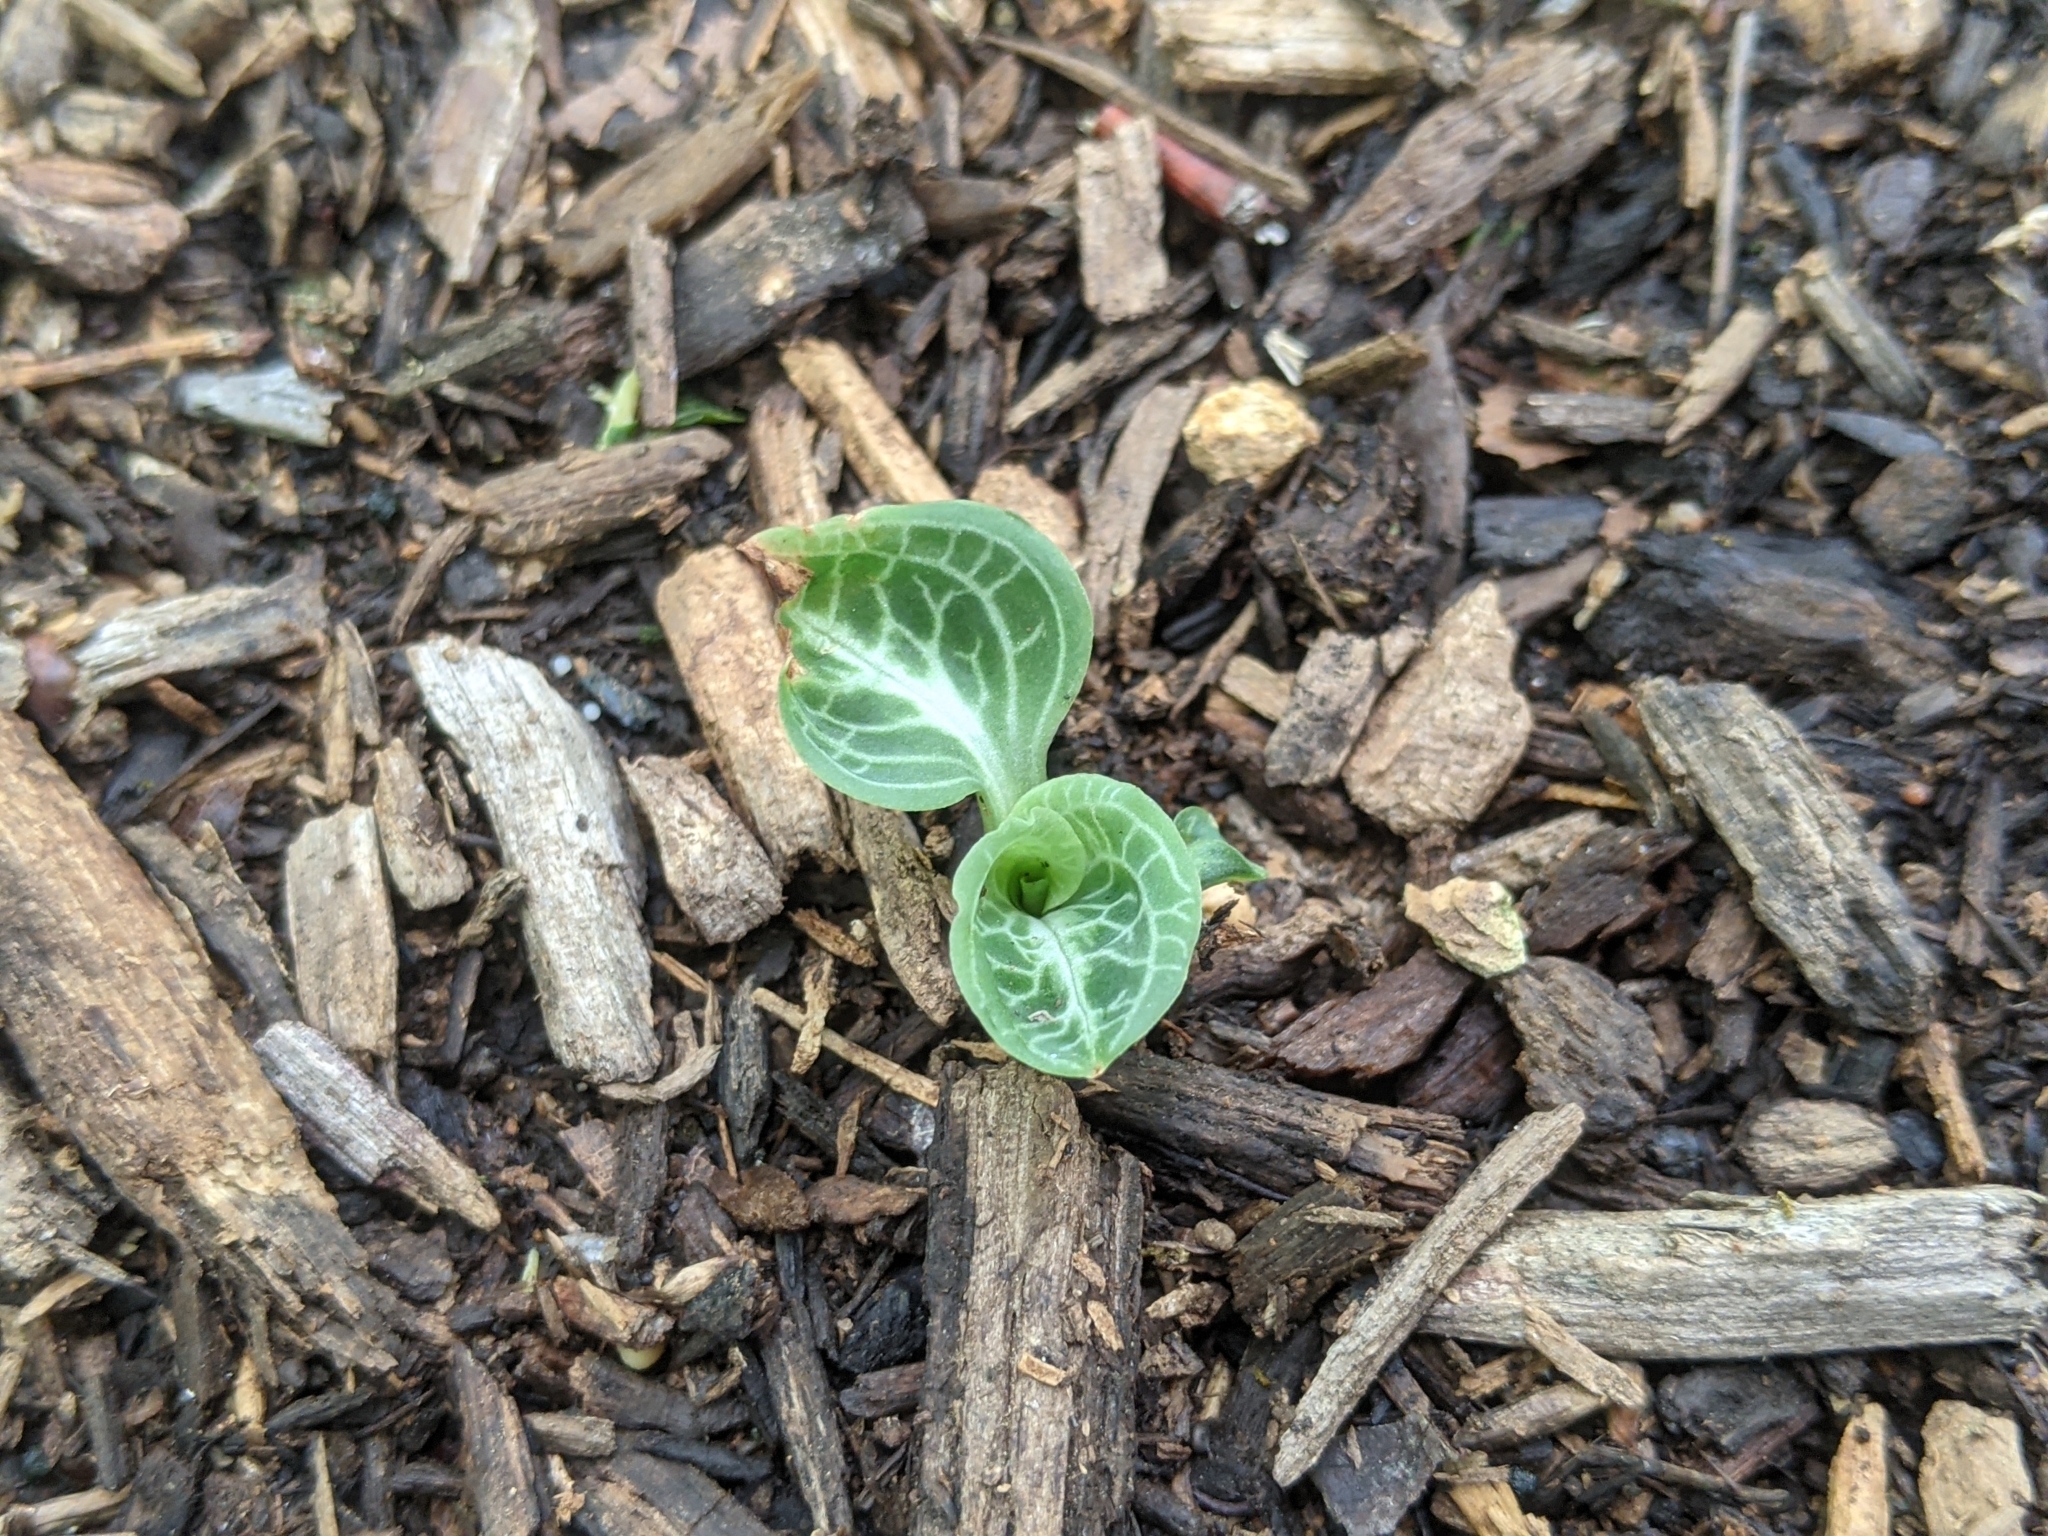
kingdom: Plantae
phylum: Tracheophyta
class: Liliopsida
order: Asparagales
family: Orchidaceae
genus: Goodyera
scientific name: Goodyera pubescens
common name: Downy rattlesnake-plantain
